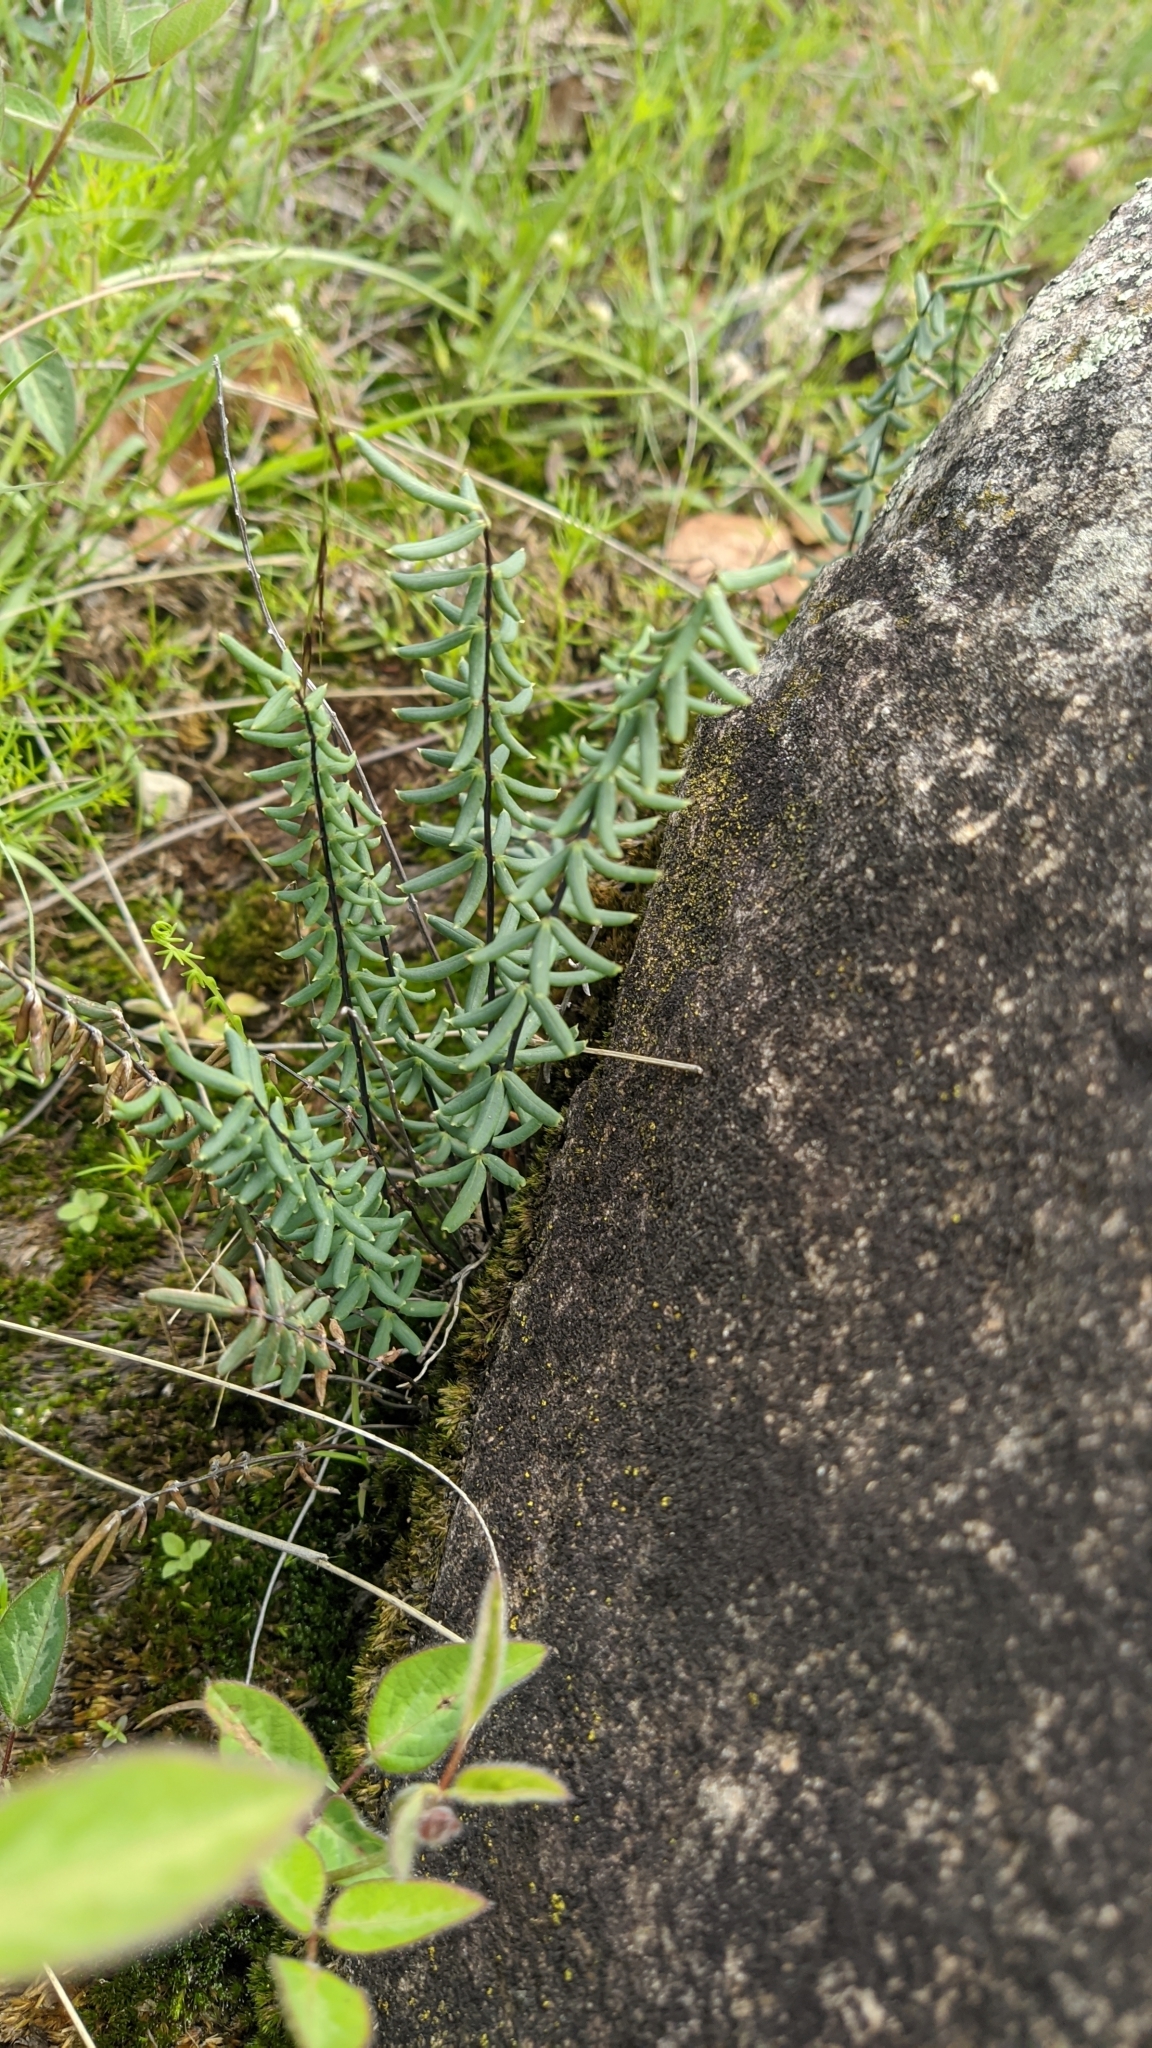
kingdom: Plantae
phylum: Tracheophyta
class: Polypodiopsida
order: Polypodiales
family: Pteridaceae
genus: Pellaea
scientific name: Pellaea ternifolia
